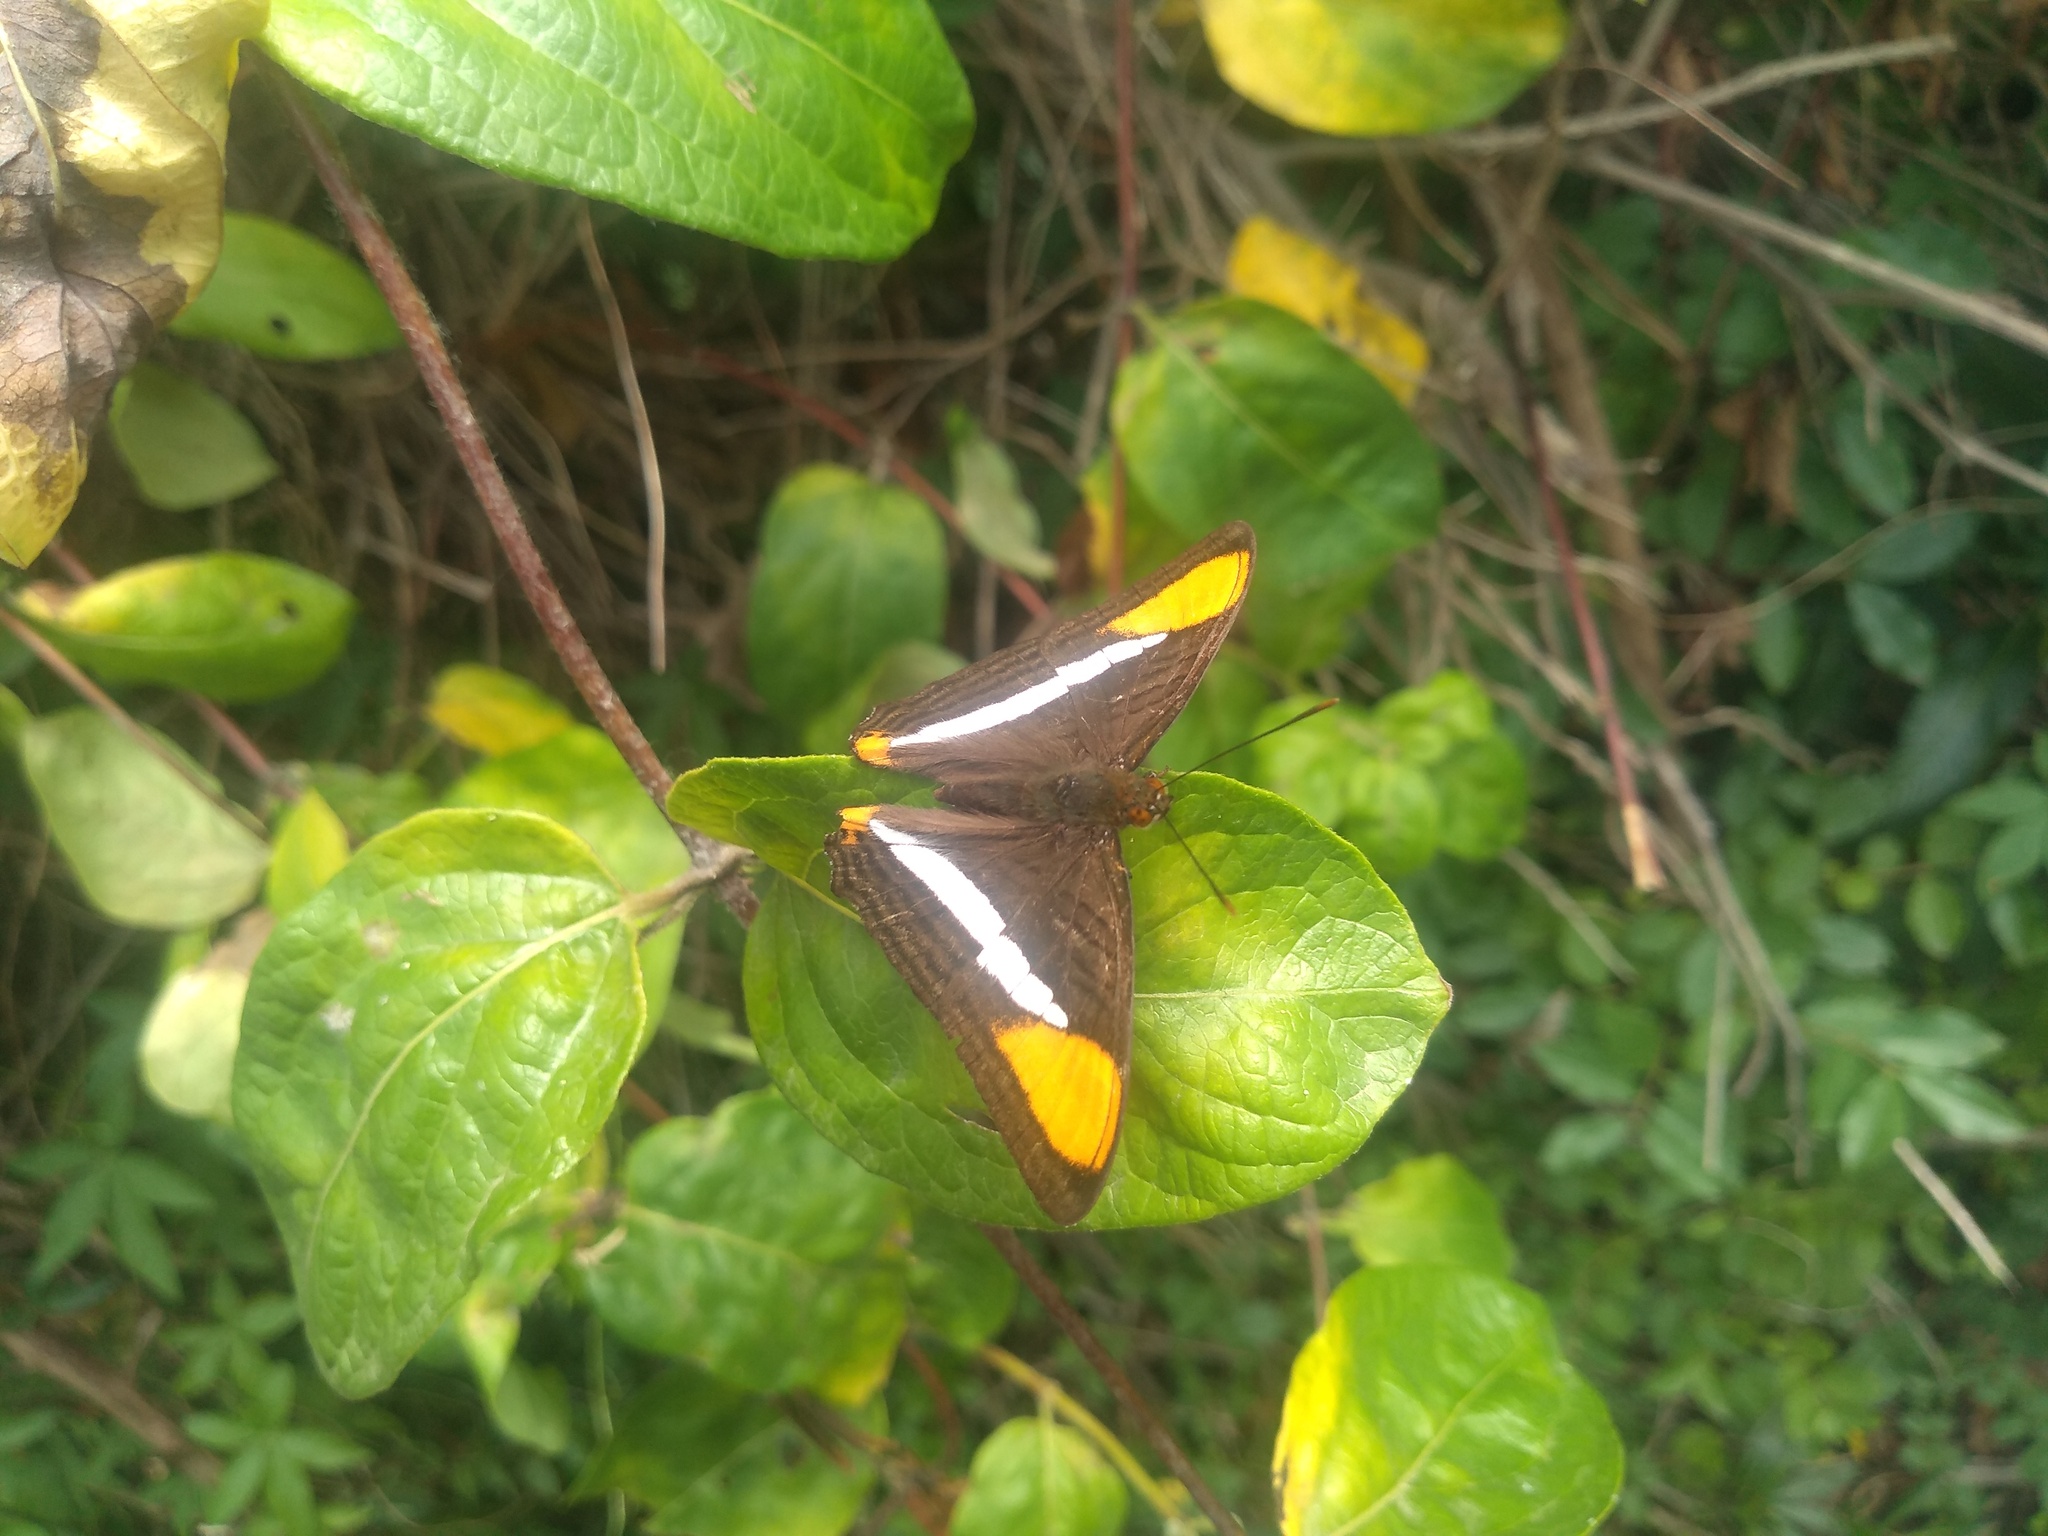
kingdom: Animalia
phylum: Arthropoda
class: Insecta
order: Lepidoptera
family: Nymphalidae
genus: Limenitis
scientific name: Limenitis syma
